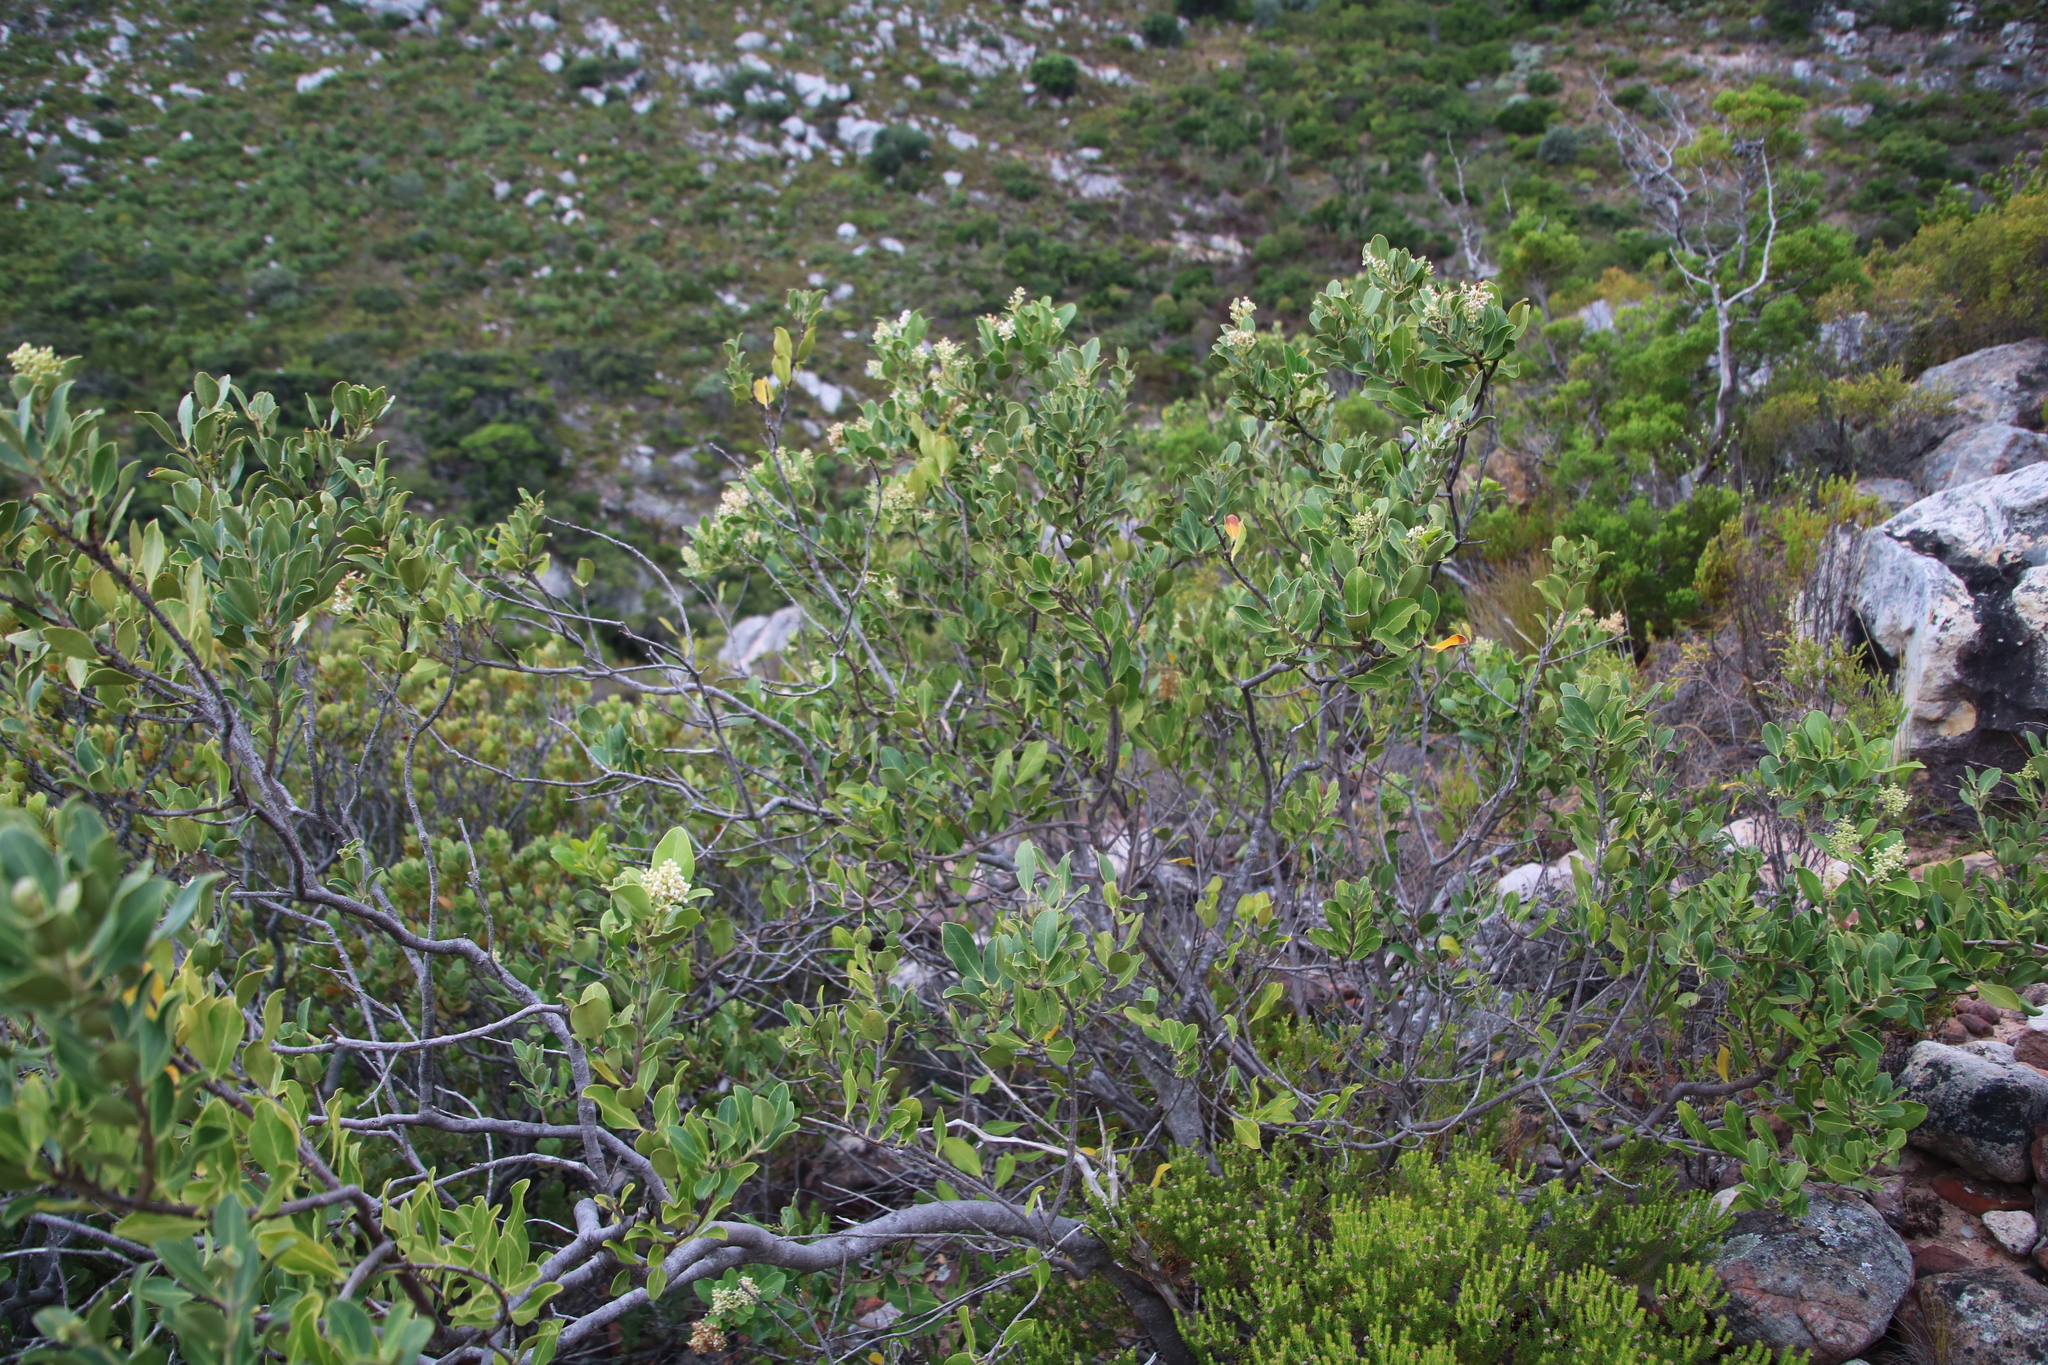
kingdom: Plantae
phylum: Tracheophyta
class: Magnoliopsida
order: Lamiales
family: Oleaceae
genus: Olea
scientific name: Olea capensis
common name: Black ironwood
